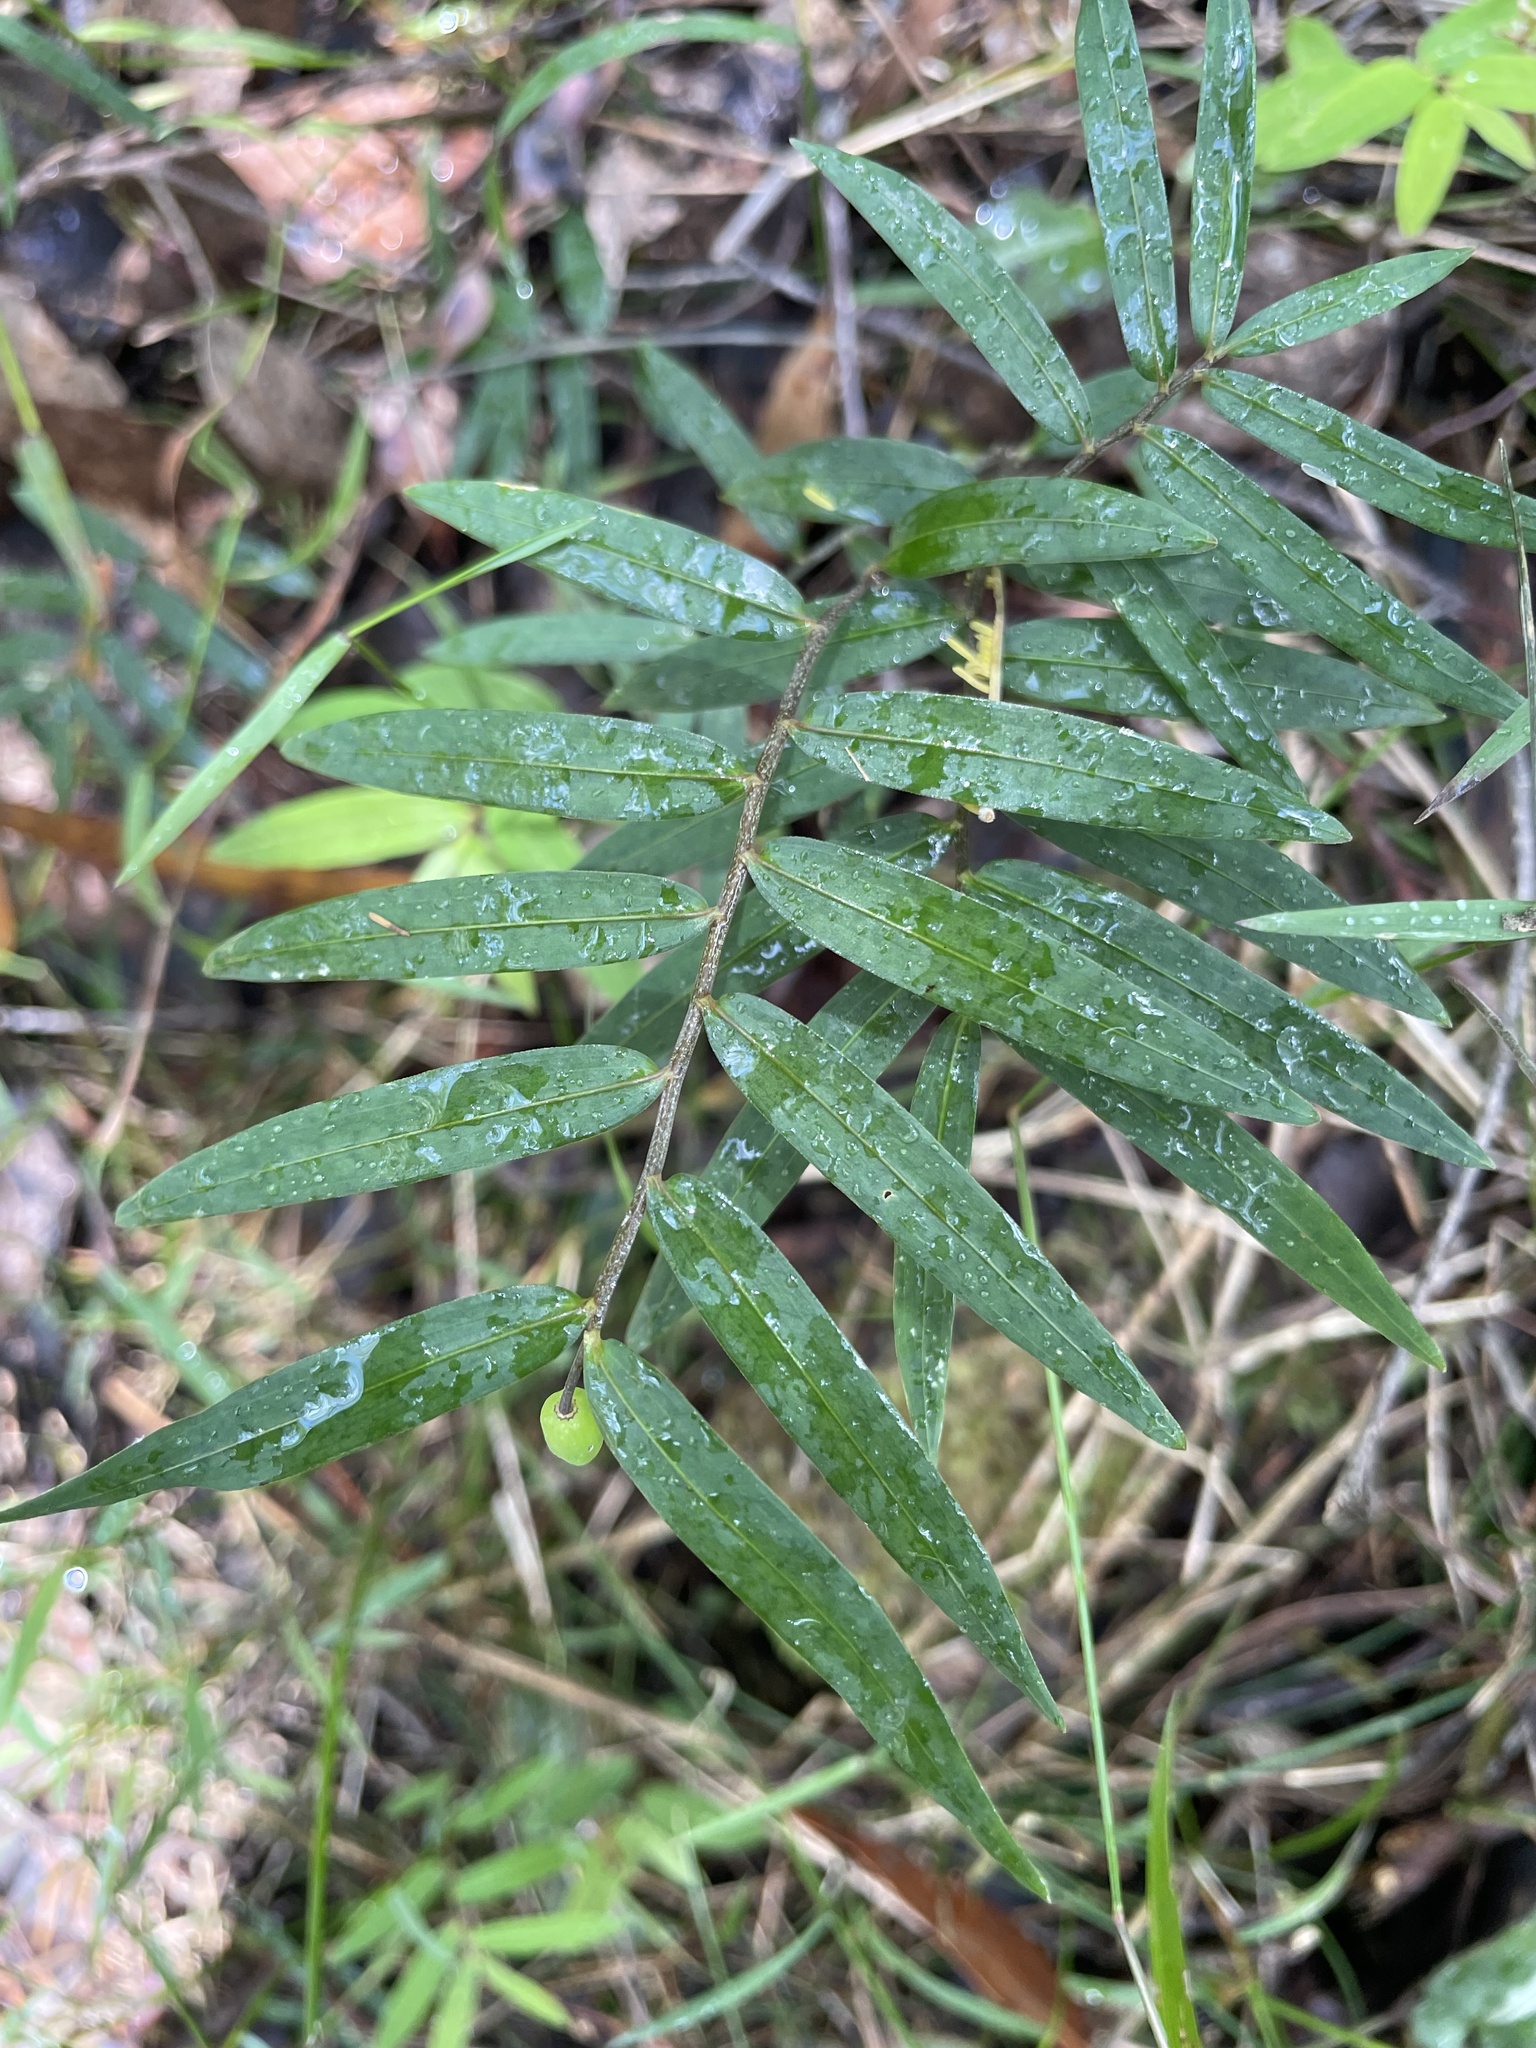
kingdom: Plantae
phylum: Tracheophyta
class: Liliopsida
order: Liliales
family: Alstroemeriaceae
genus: Drymophila
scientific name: Drymophila cyanocarpa
